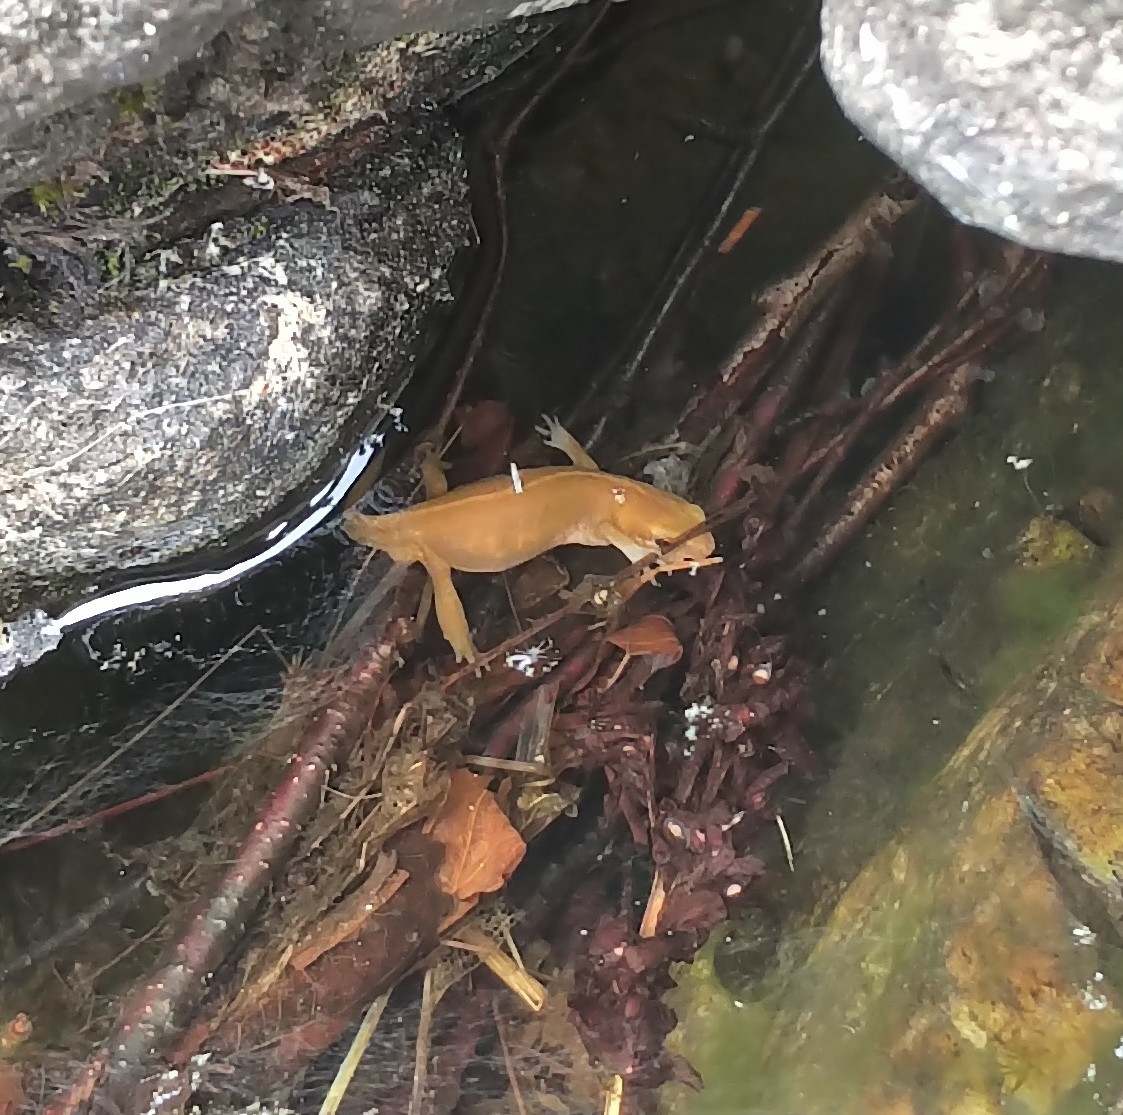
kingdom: Animalia
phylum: Chordata
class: Amphibia
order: Caudata
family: Salamandridae
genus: Lissotriton
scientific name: Lissotriton helveticus
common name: Palmate newt
